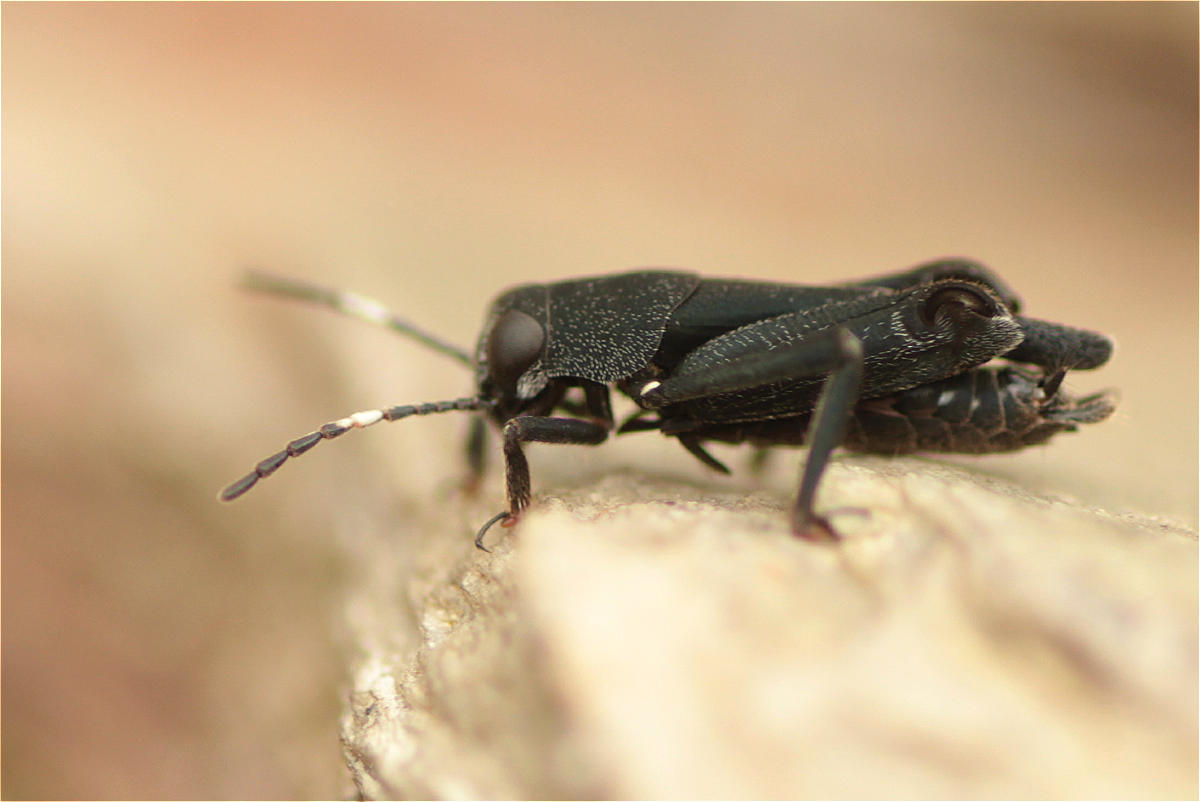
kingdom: Animalia
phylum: Arthropoda
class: Insecta
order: Orthoptera
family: Ripipterygidae
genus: Ripipteryx
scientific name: Ripipteryx forceps
